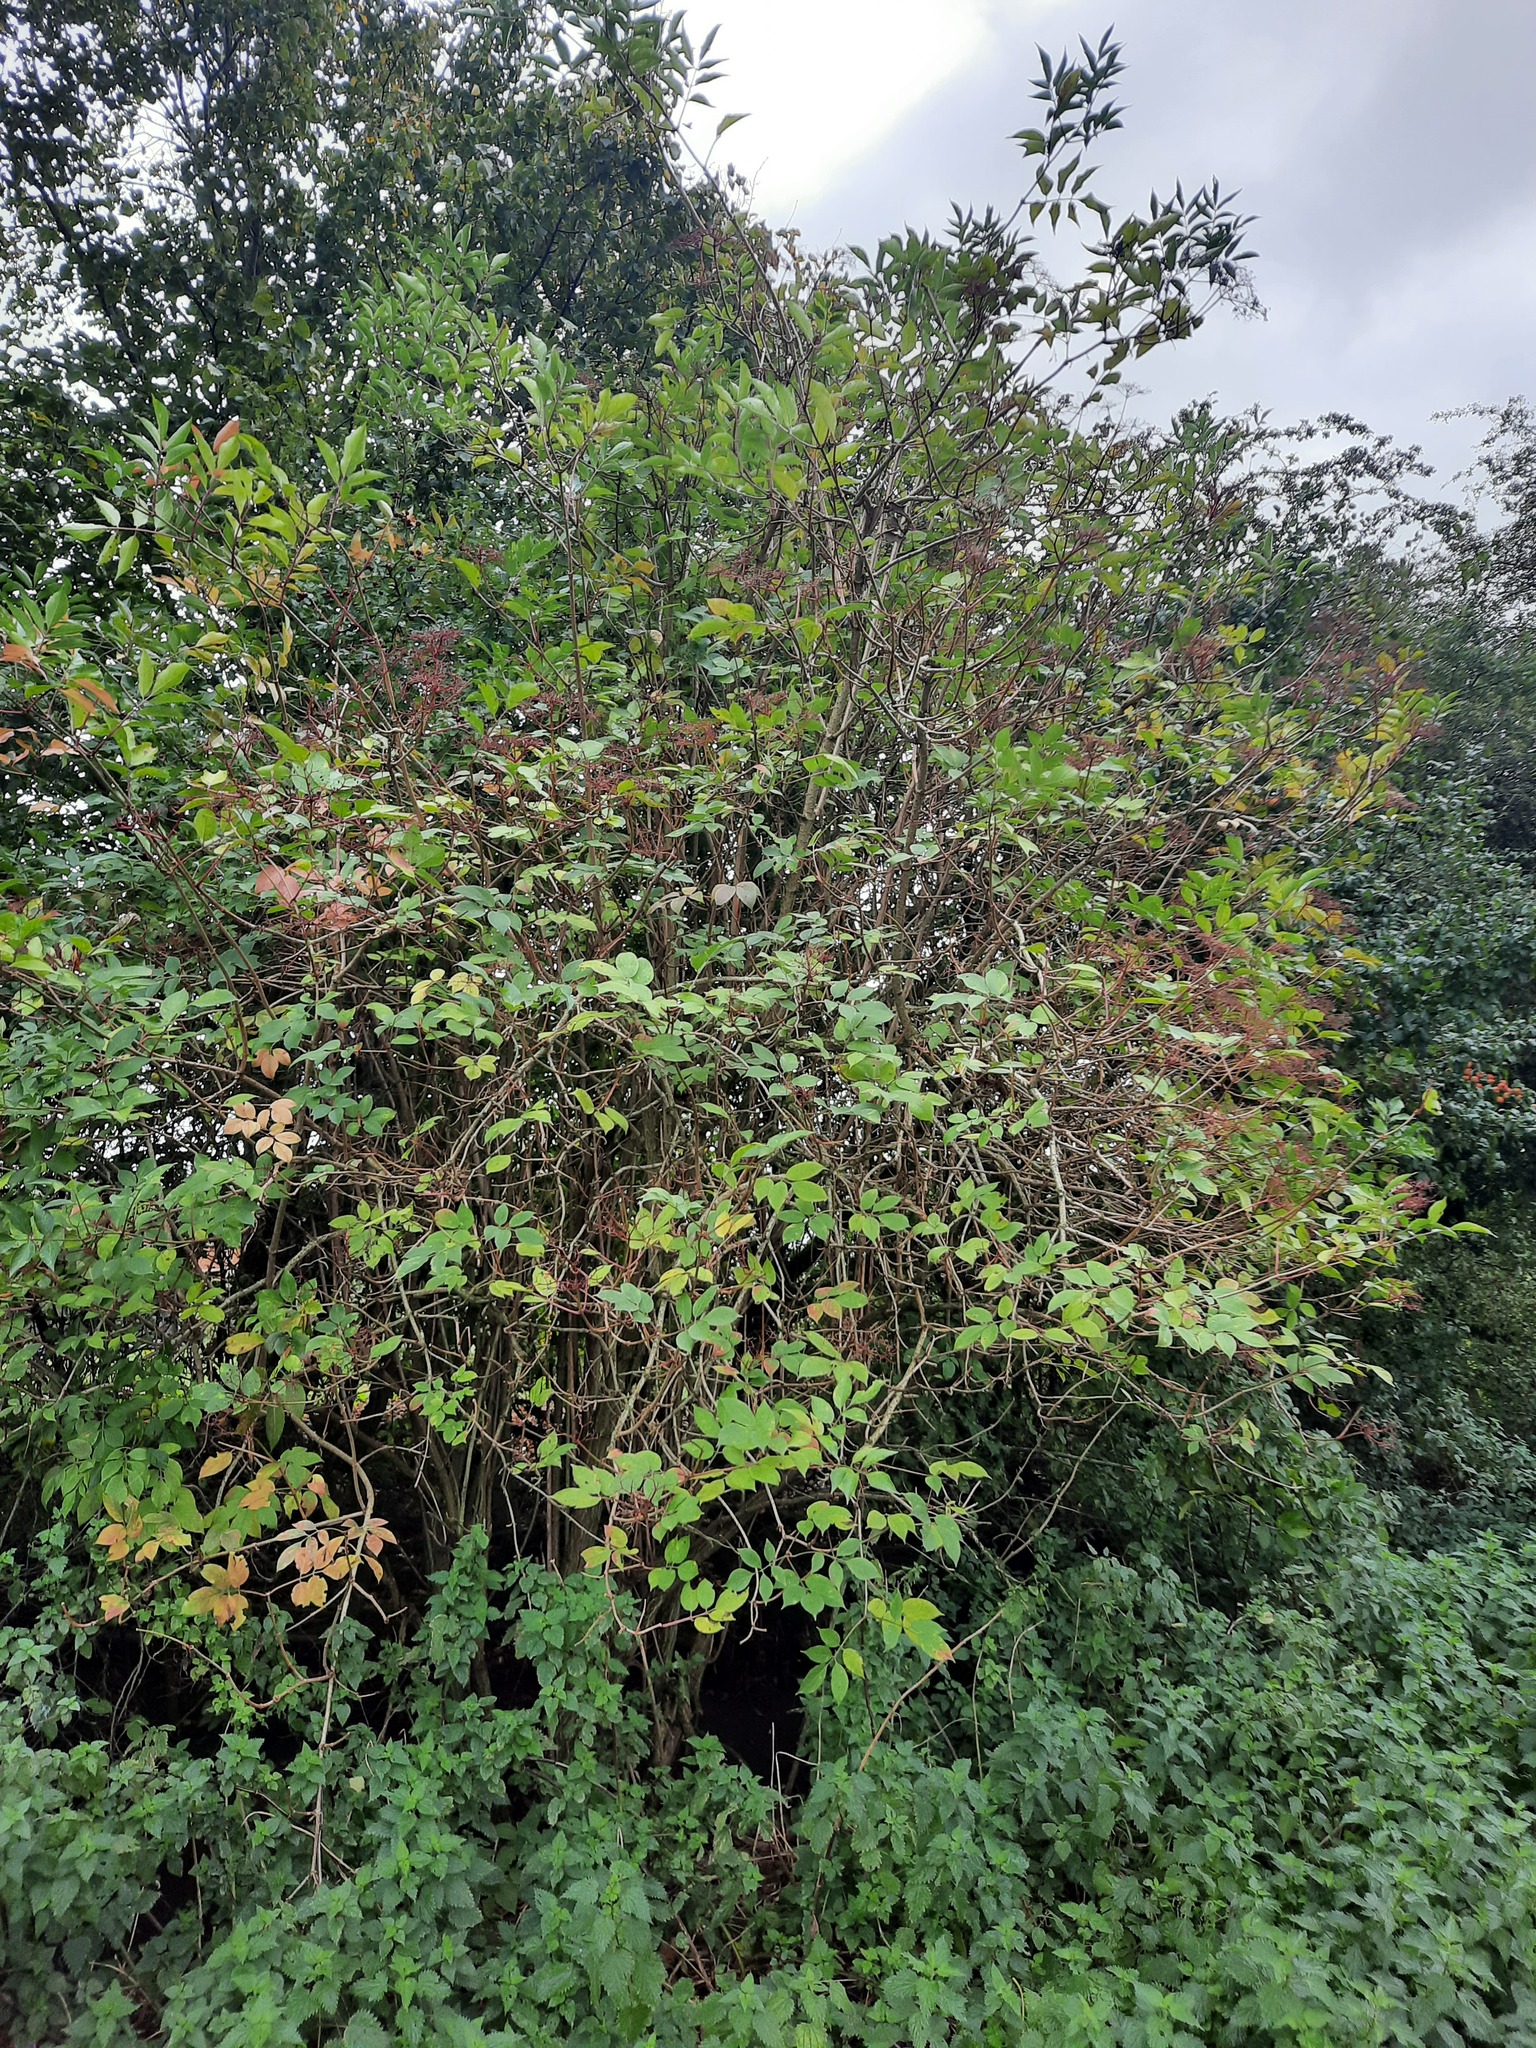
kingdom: Plantae
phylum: Tracheophyta
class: Magnoliopsida
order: Dipsacales
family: Viburnaceae
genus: Sambucus
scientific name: Sambucus nigra
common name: Elder
